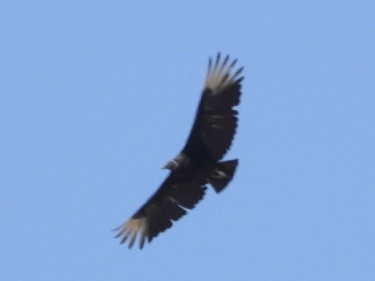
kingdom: Animalia
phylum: Chordata
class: Aves
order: Accipitriformes
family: Cathartidae
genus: Coragyps
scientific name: Coragyps atratus
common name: Black vulture
